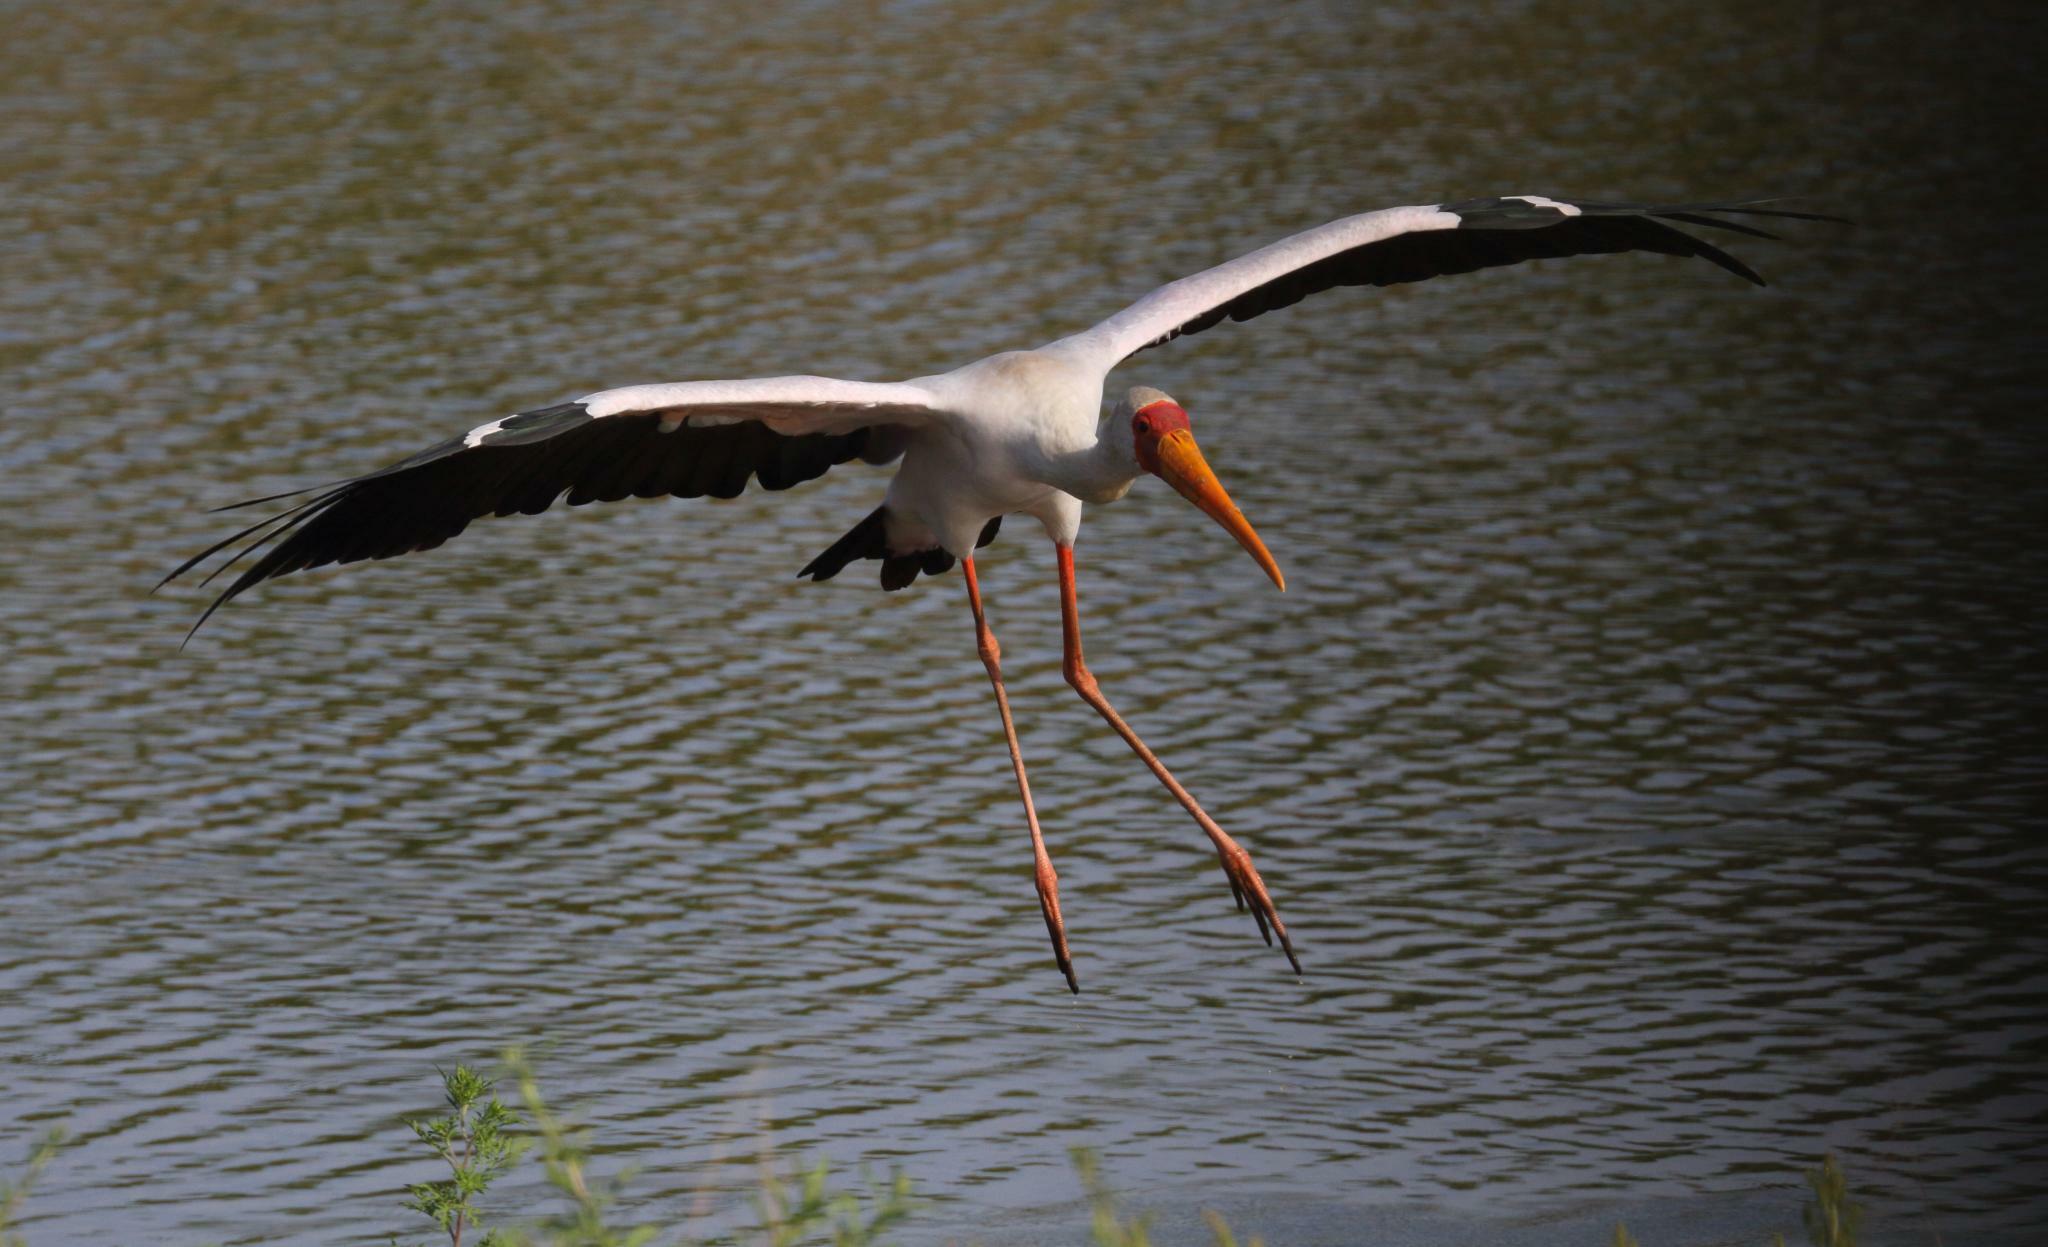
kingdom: Animalia
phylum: Chordata
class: Aves
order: Ciconiiformes
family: Ciconiidae
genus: Mycteria
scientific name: Mycteria ibis
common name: Yellow-billed stork
